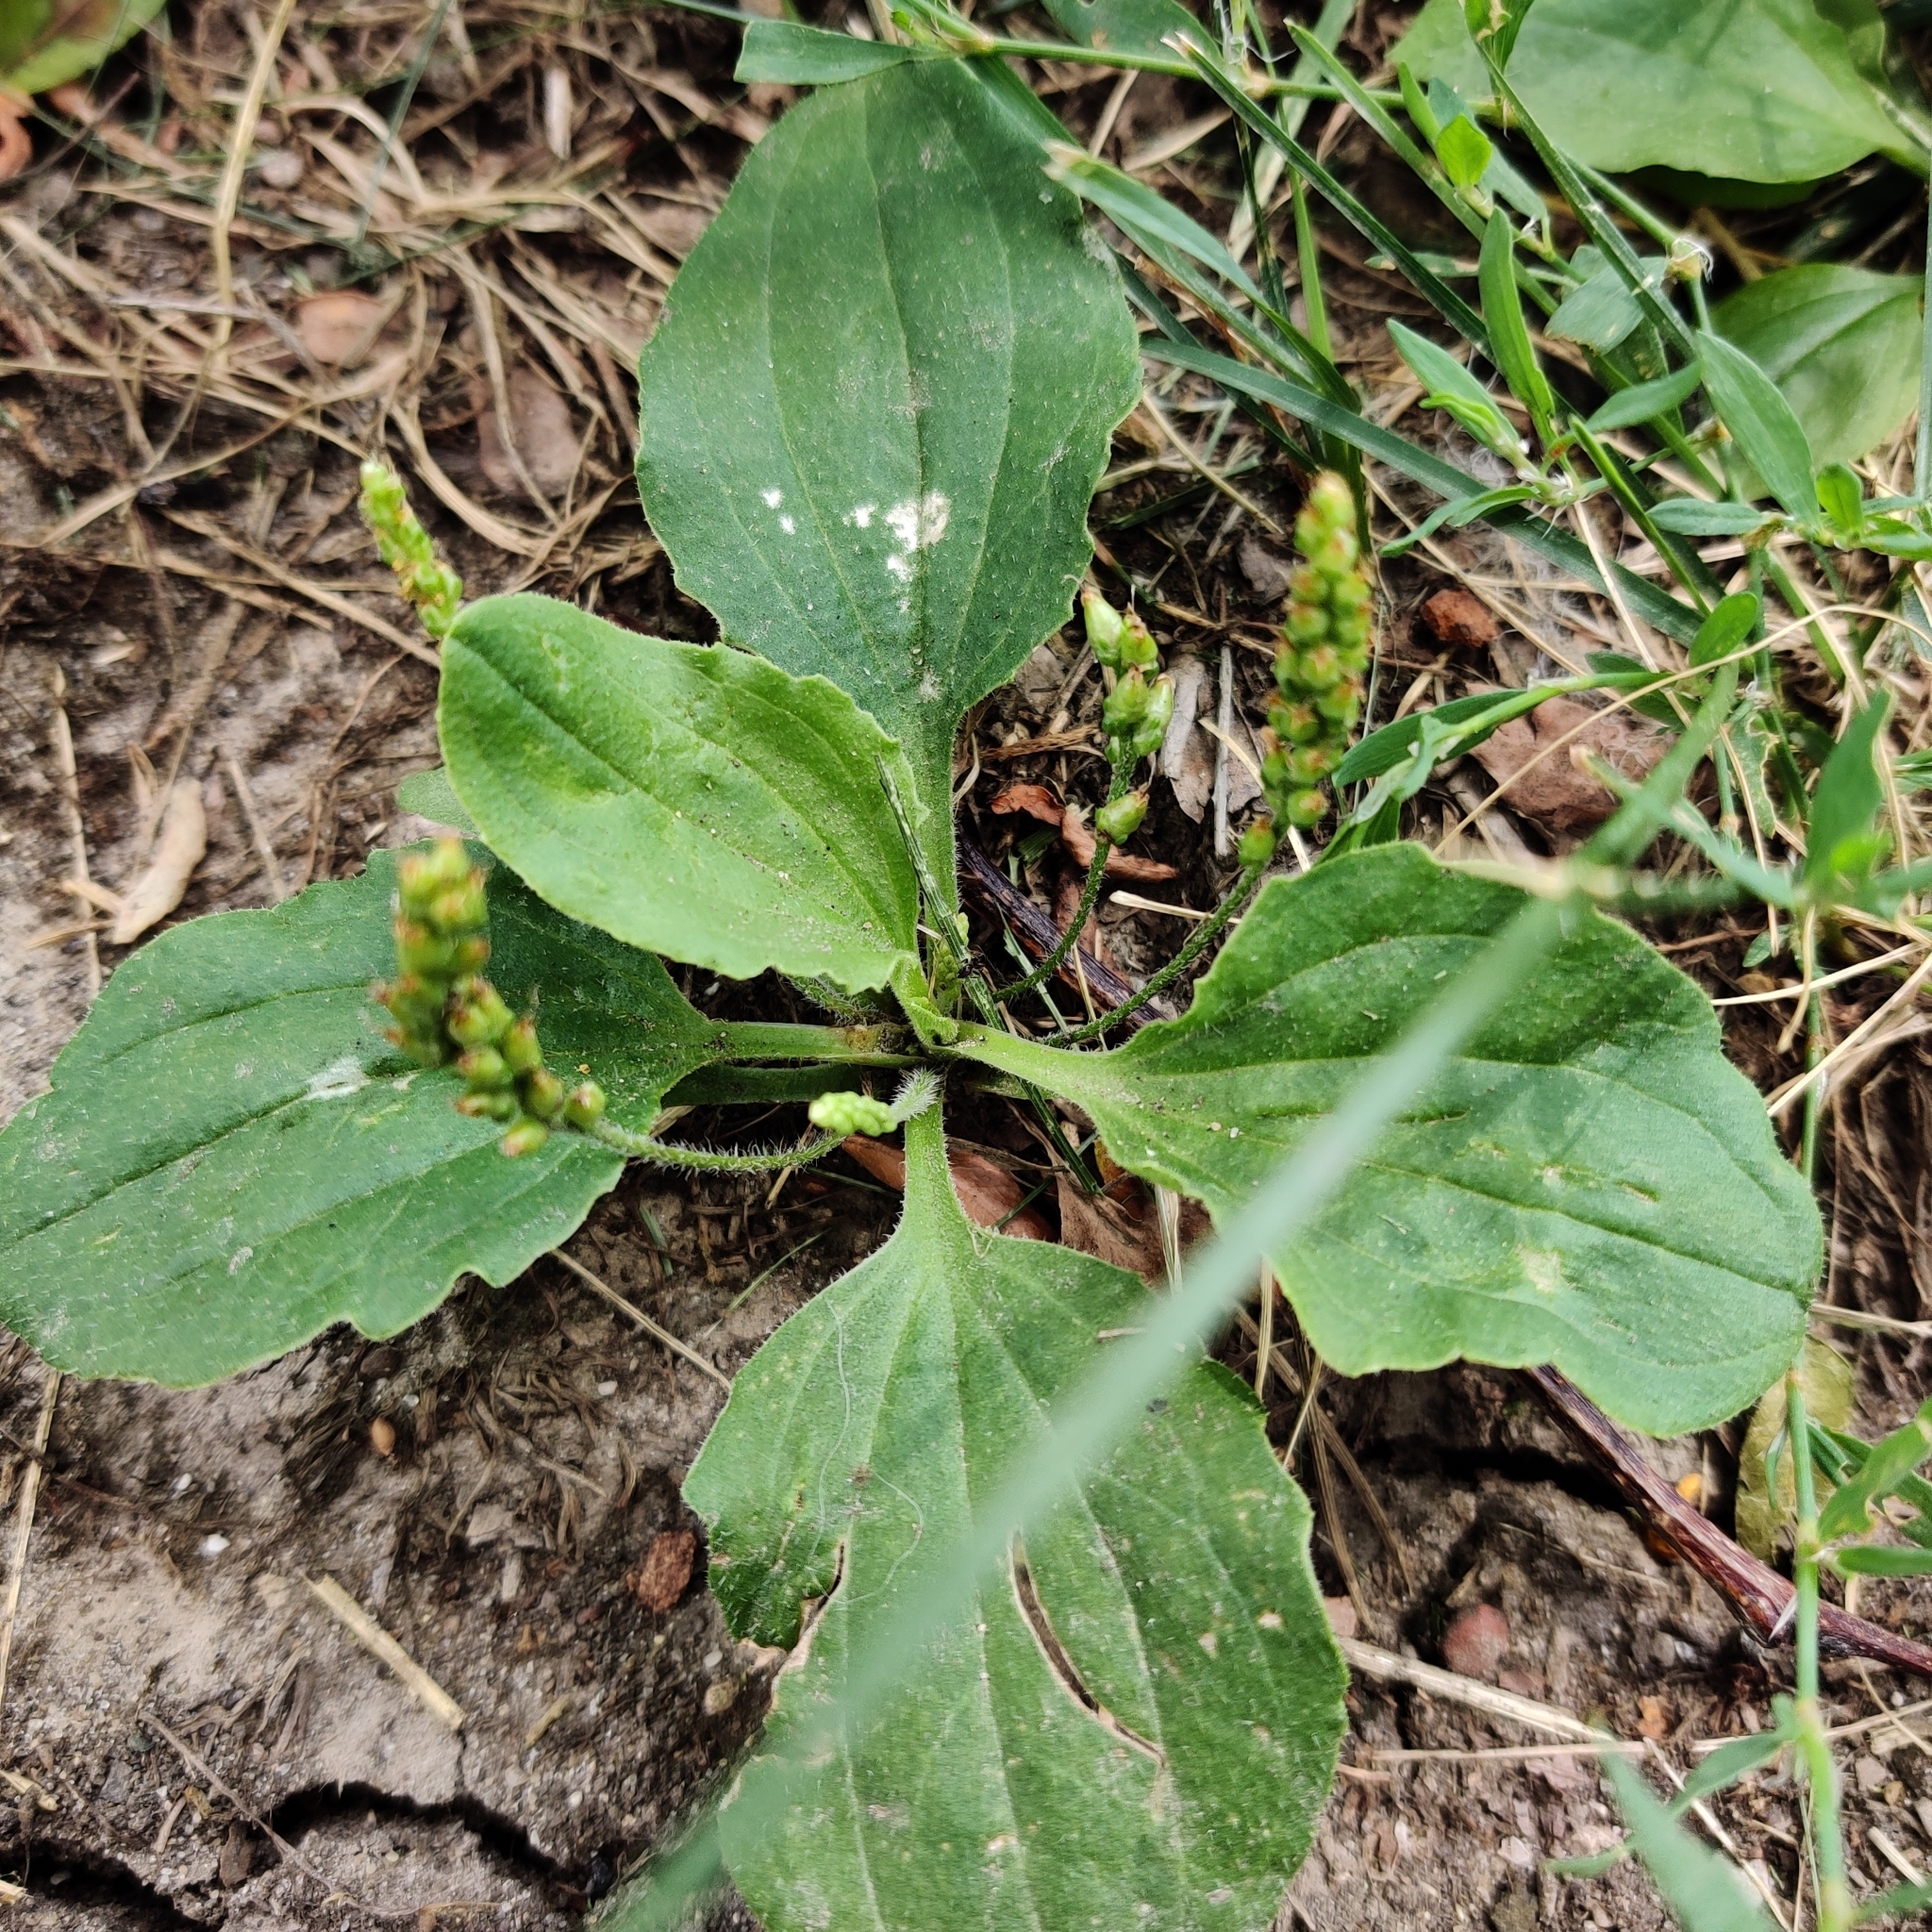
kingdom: Plantae
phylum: Tracheophyta
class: Magnoliopsida
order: Lamiales
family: Plantaginaceae
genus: Plantago
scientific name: Plantago major
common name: Common plantain
